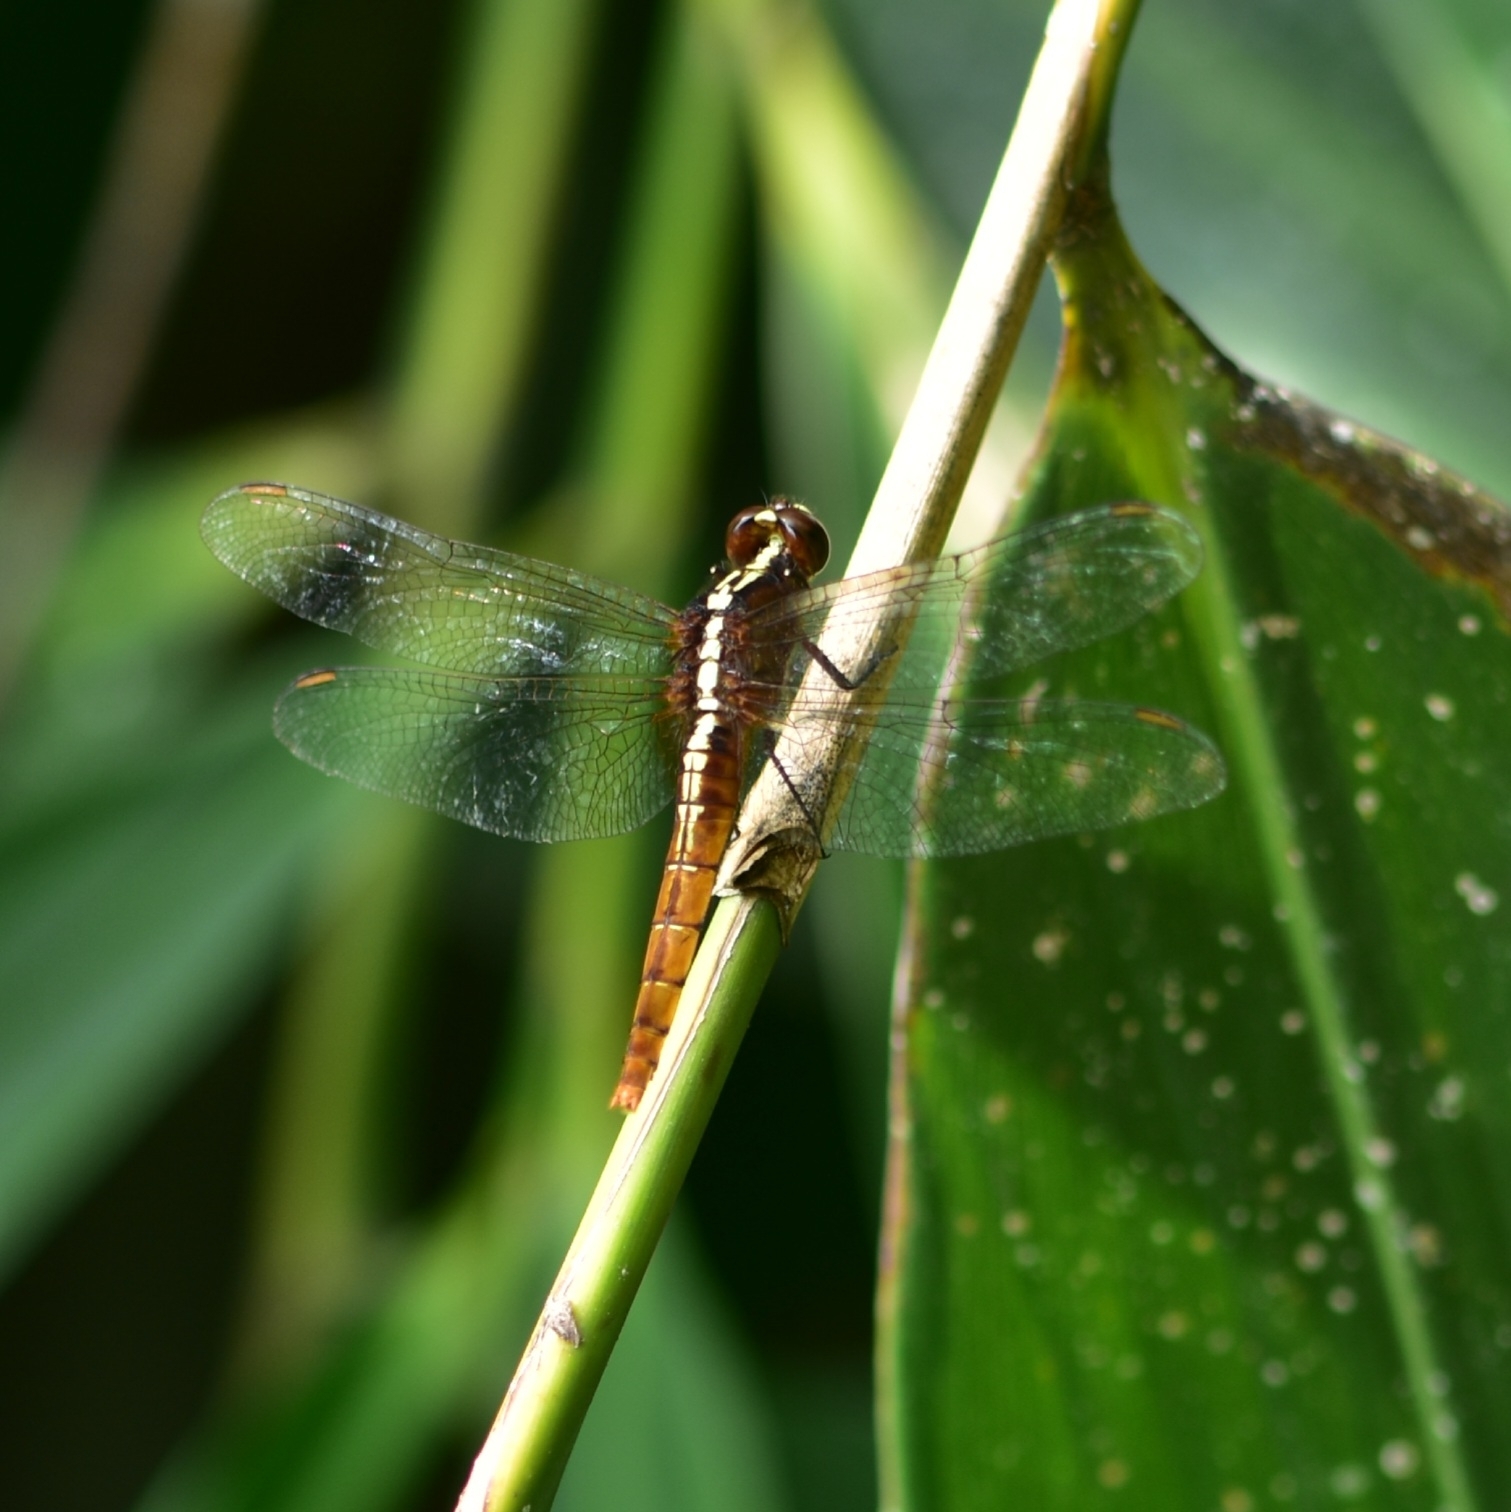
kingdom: Animalia
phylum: Arthropoda
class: Insecta
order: Odonata
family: Libellulidae
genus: Rhodothemis
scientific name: Rhodothemis rufa
